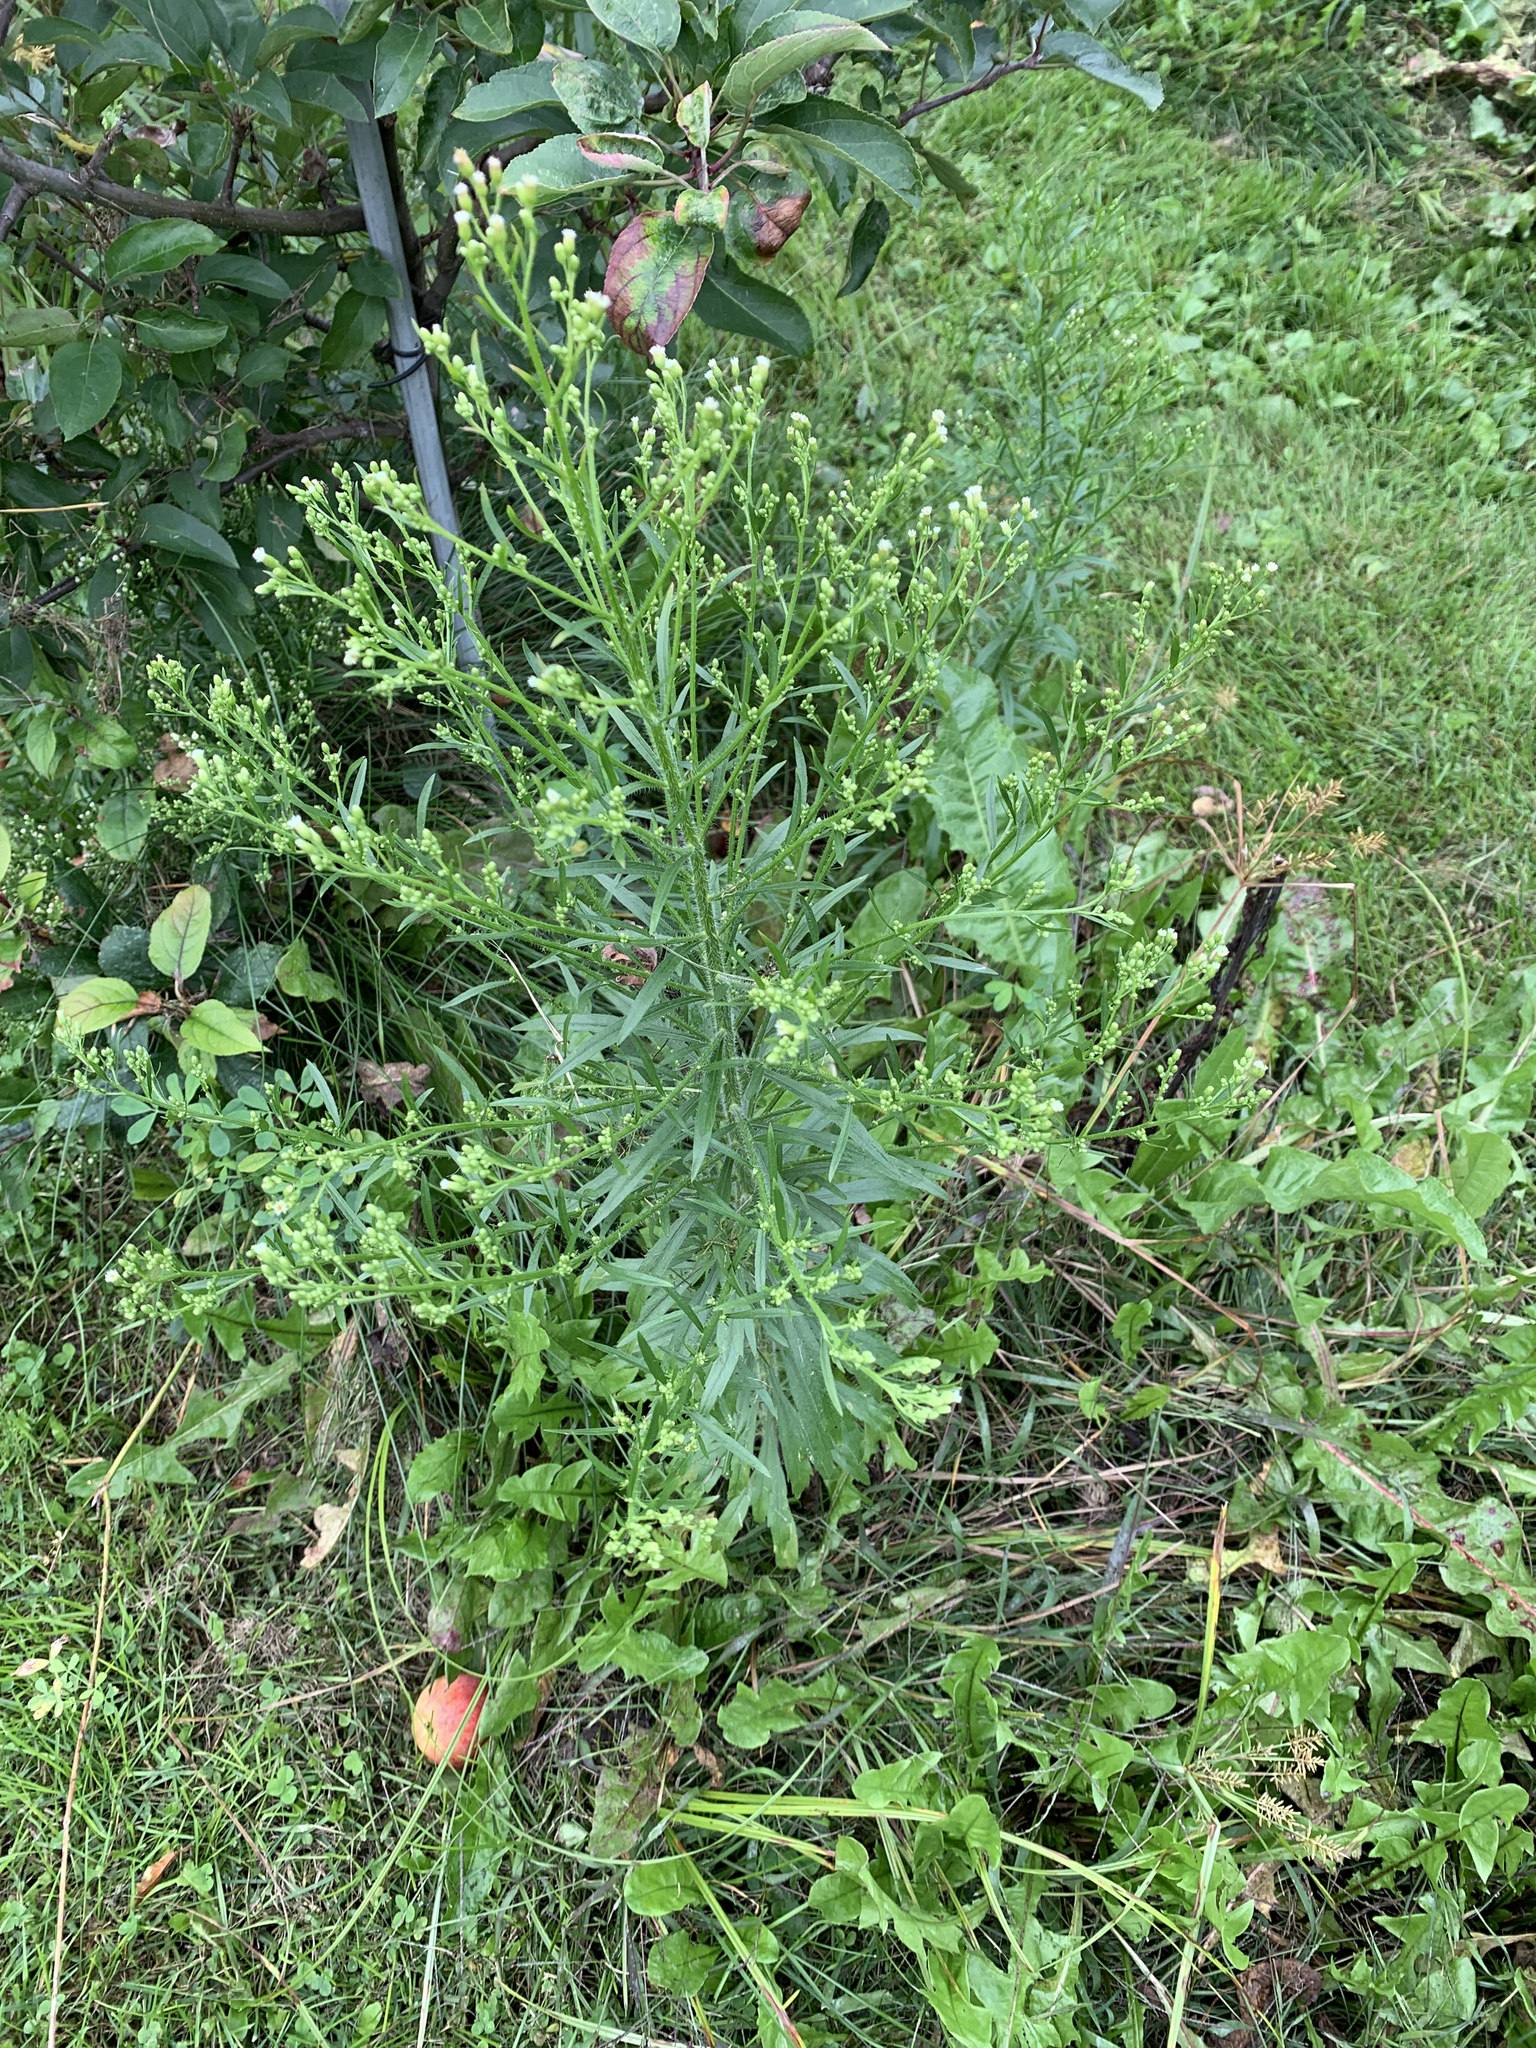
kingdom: Plantae
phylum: Tracheophyta
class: Magnoliopsida
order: Asterales
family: Asteraceae
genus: Erigeron
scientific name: Erigeron canadensis
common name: Canadian fleabane
